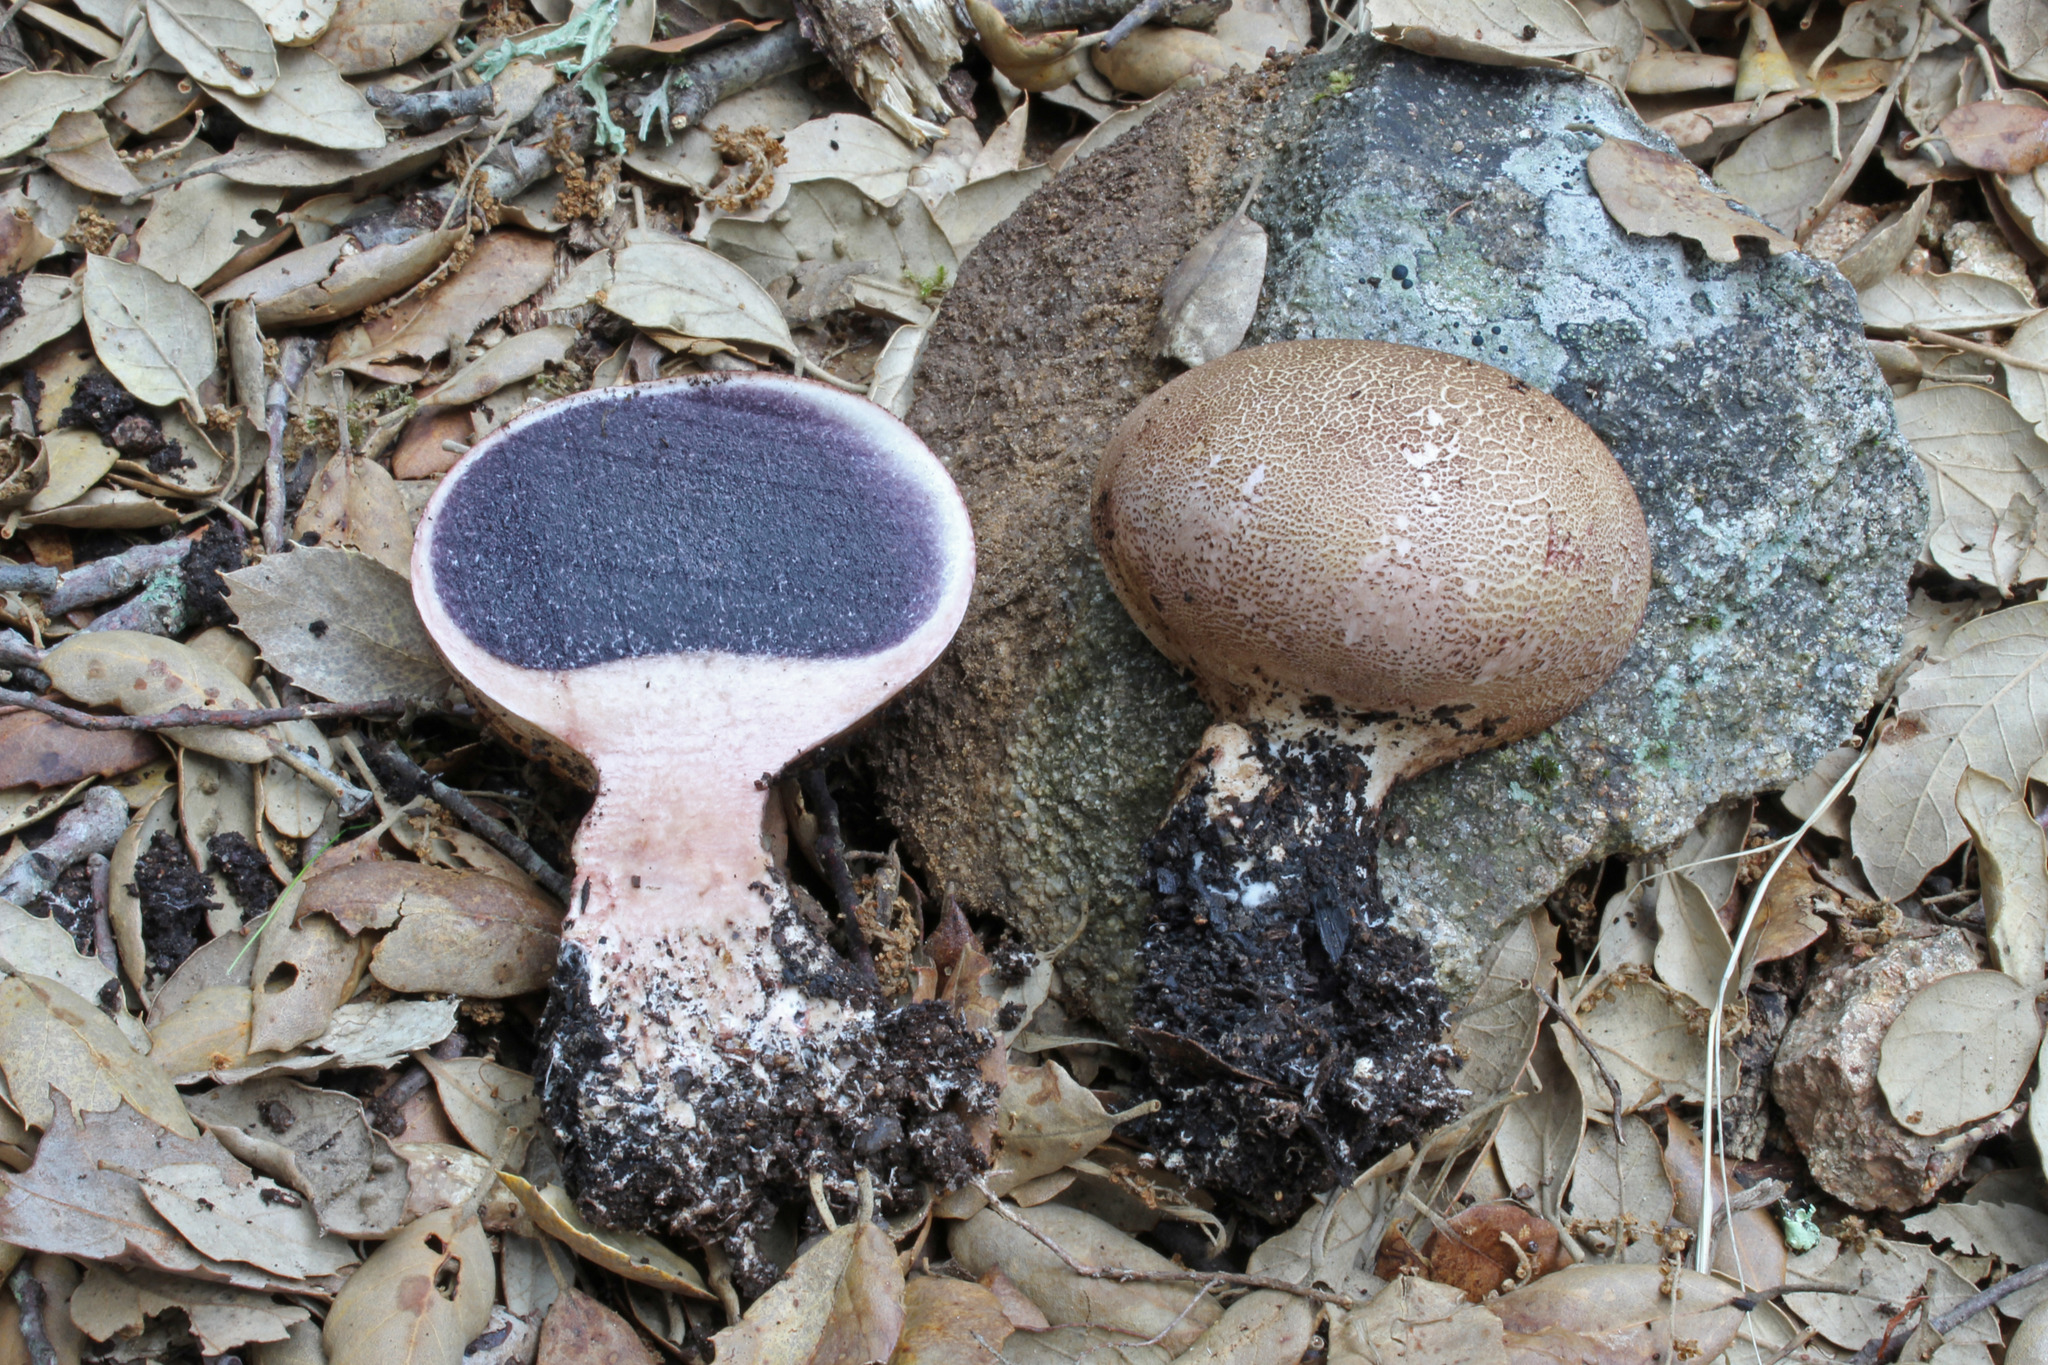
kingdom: Fungi
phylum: Basidiomycota
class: Agaricomycetes
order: Boletales
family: Sclerodermataceae
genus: Scleroderma
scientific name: Scleroderma verrucosum
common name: Scaly earthball
